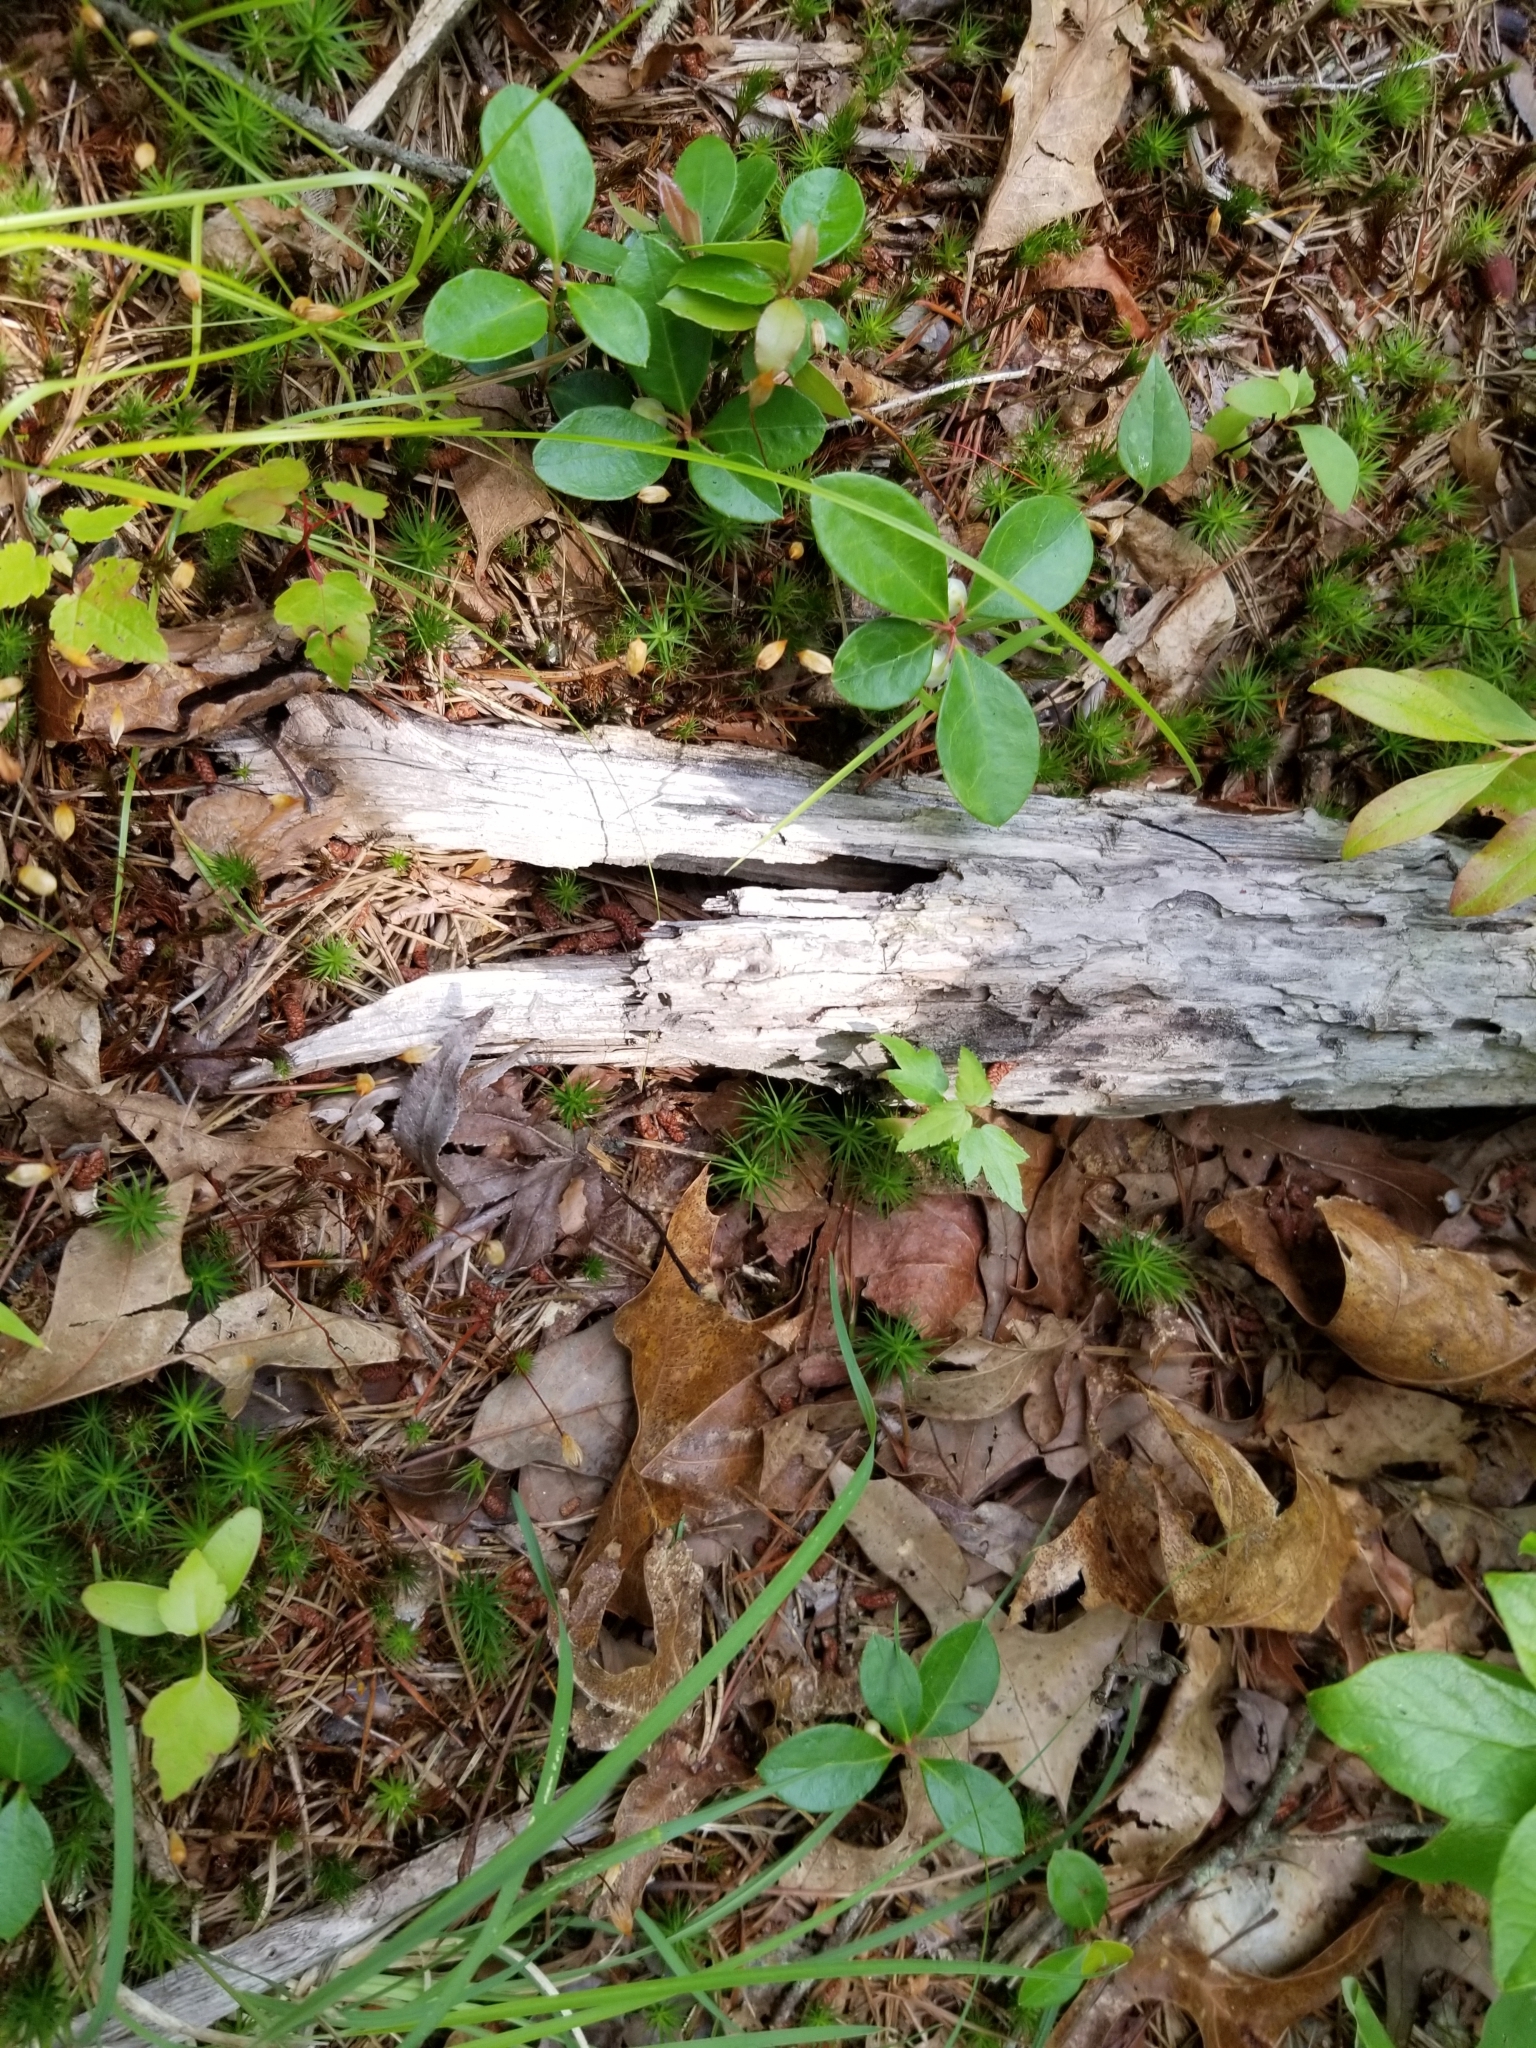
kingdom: Plantae
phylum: Tracheophyta
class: Magnoliopsida
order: Ericales
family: Ericaceae
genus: Gaultheria
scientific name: Gaultheria procumbens
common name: Checkerberry
